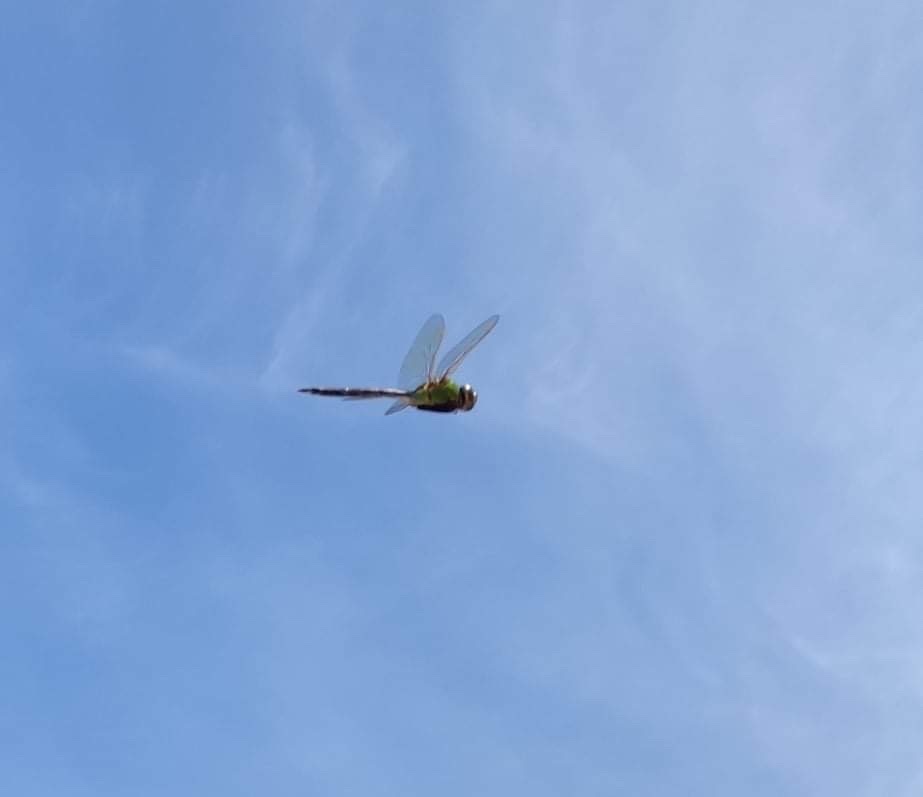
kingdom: Animalia
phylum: Arthropoda
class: Insecta
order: Odonata
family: Aeshnidae
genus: Anax
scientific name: Anax junius
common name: Common green darner
